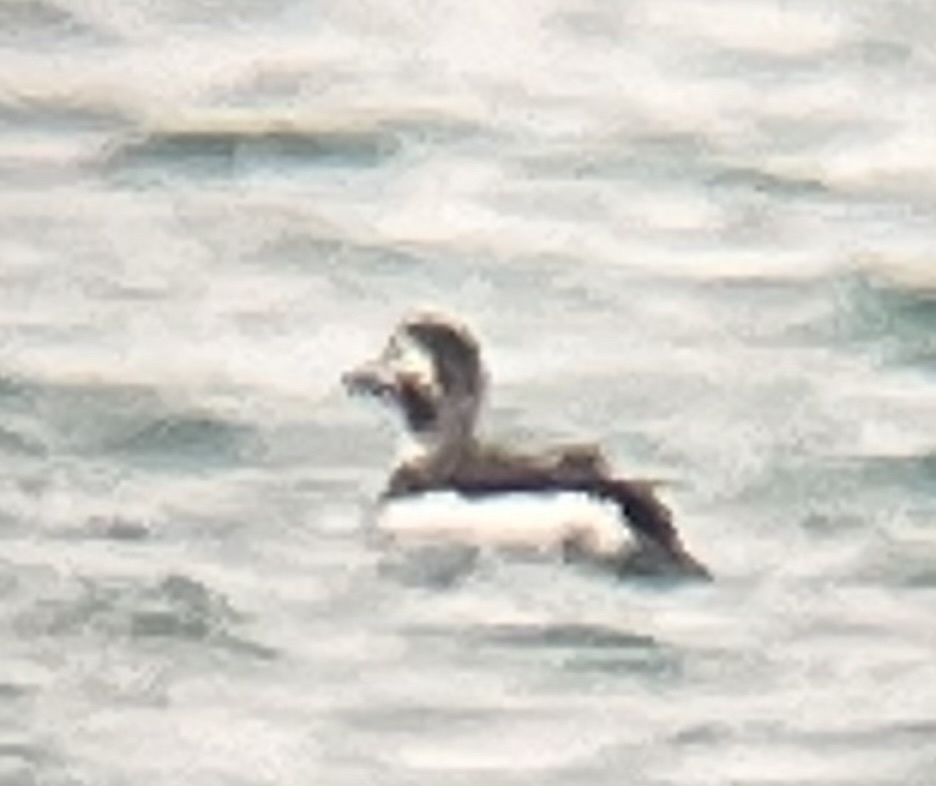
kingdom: Animalia
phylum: Chordata
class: Aves
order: Anseriformes
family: Anatidae
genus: Clangula
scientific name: Clangula hyemalis
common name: Long-tailed duck
